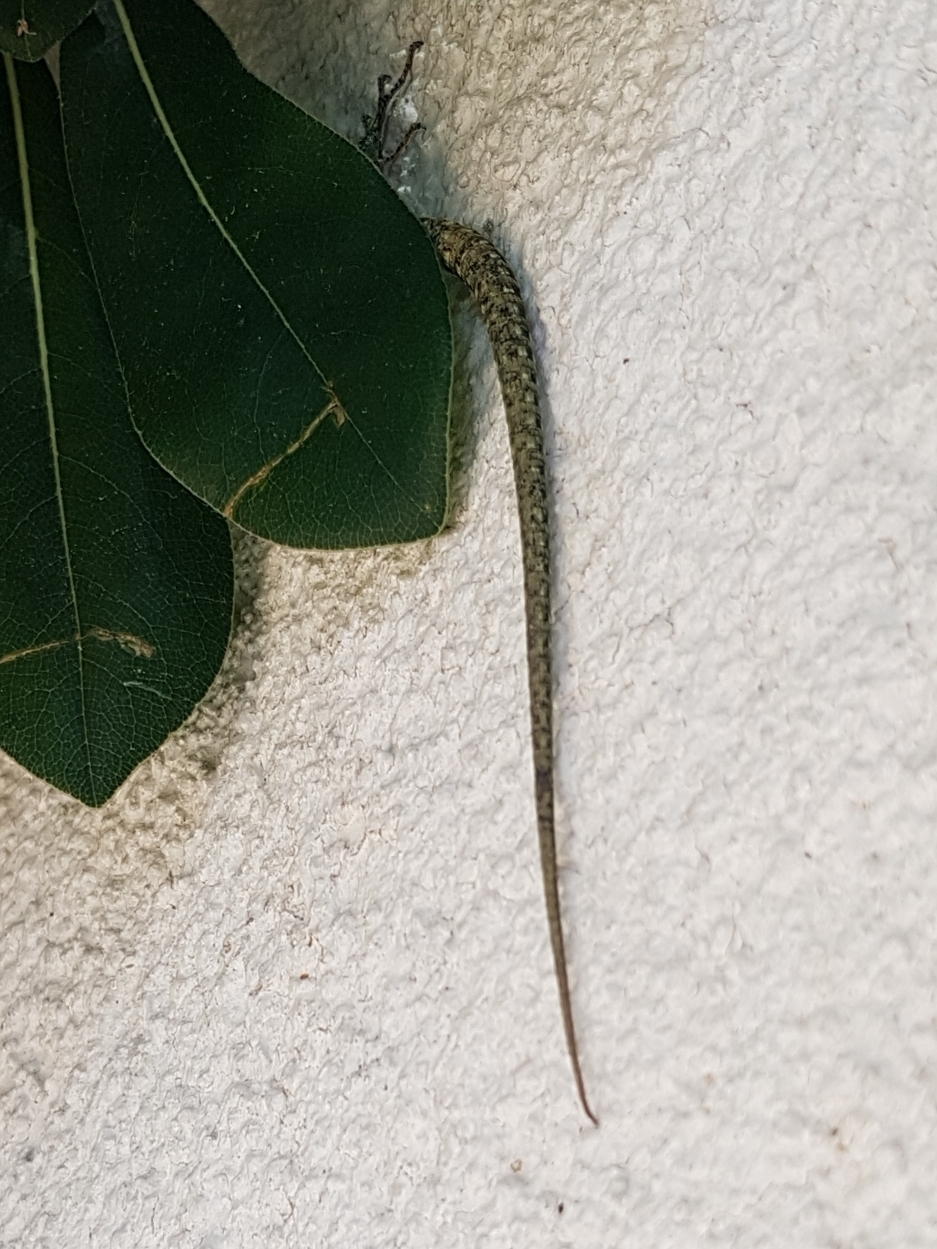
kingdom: Animalia
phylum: Chordata
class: Squamata
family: Lacertidae
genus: Podarcis
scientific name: Podarcis muralis
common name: Common wall lizard
